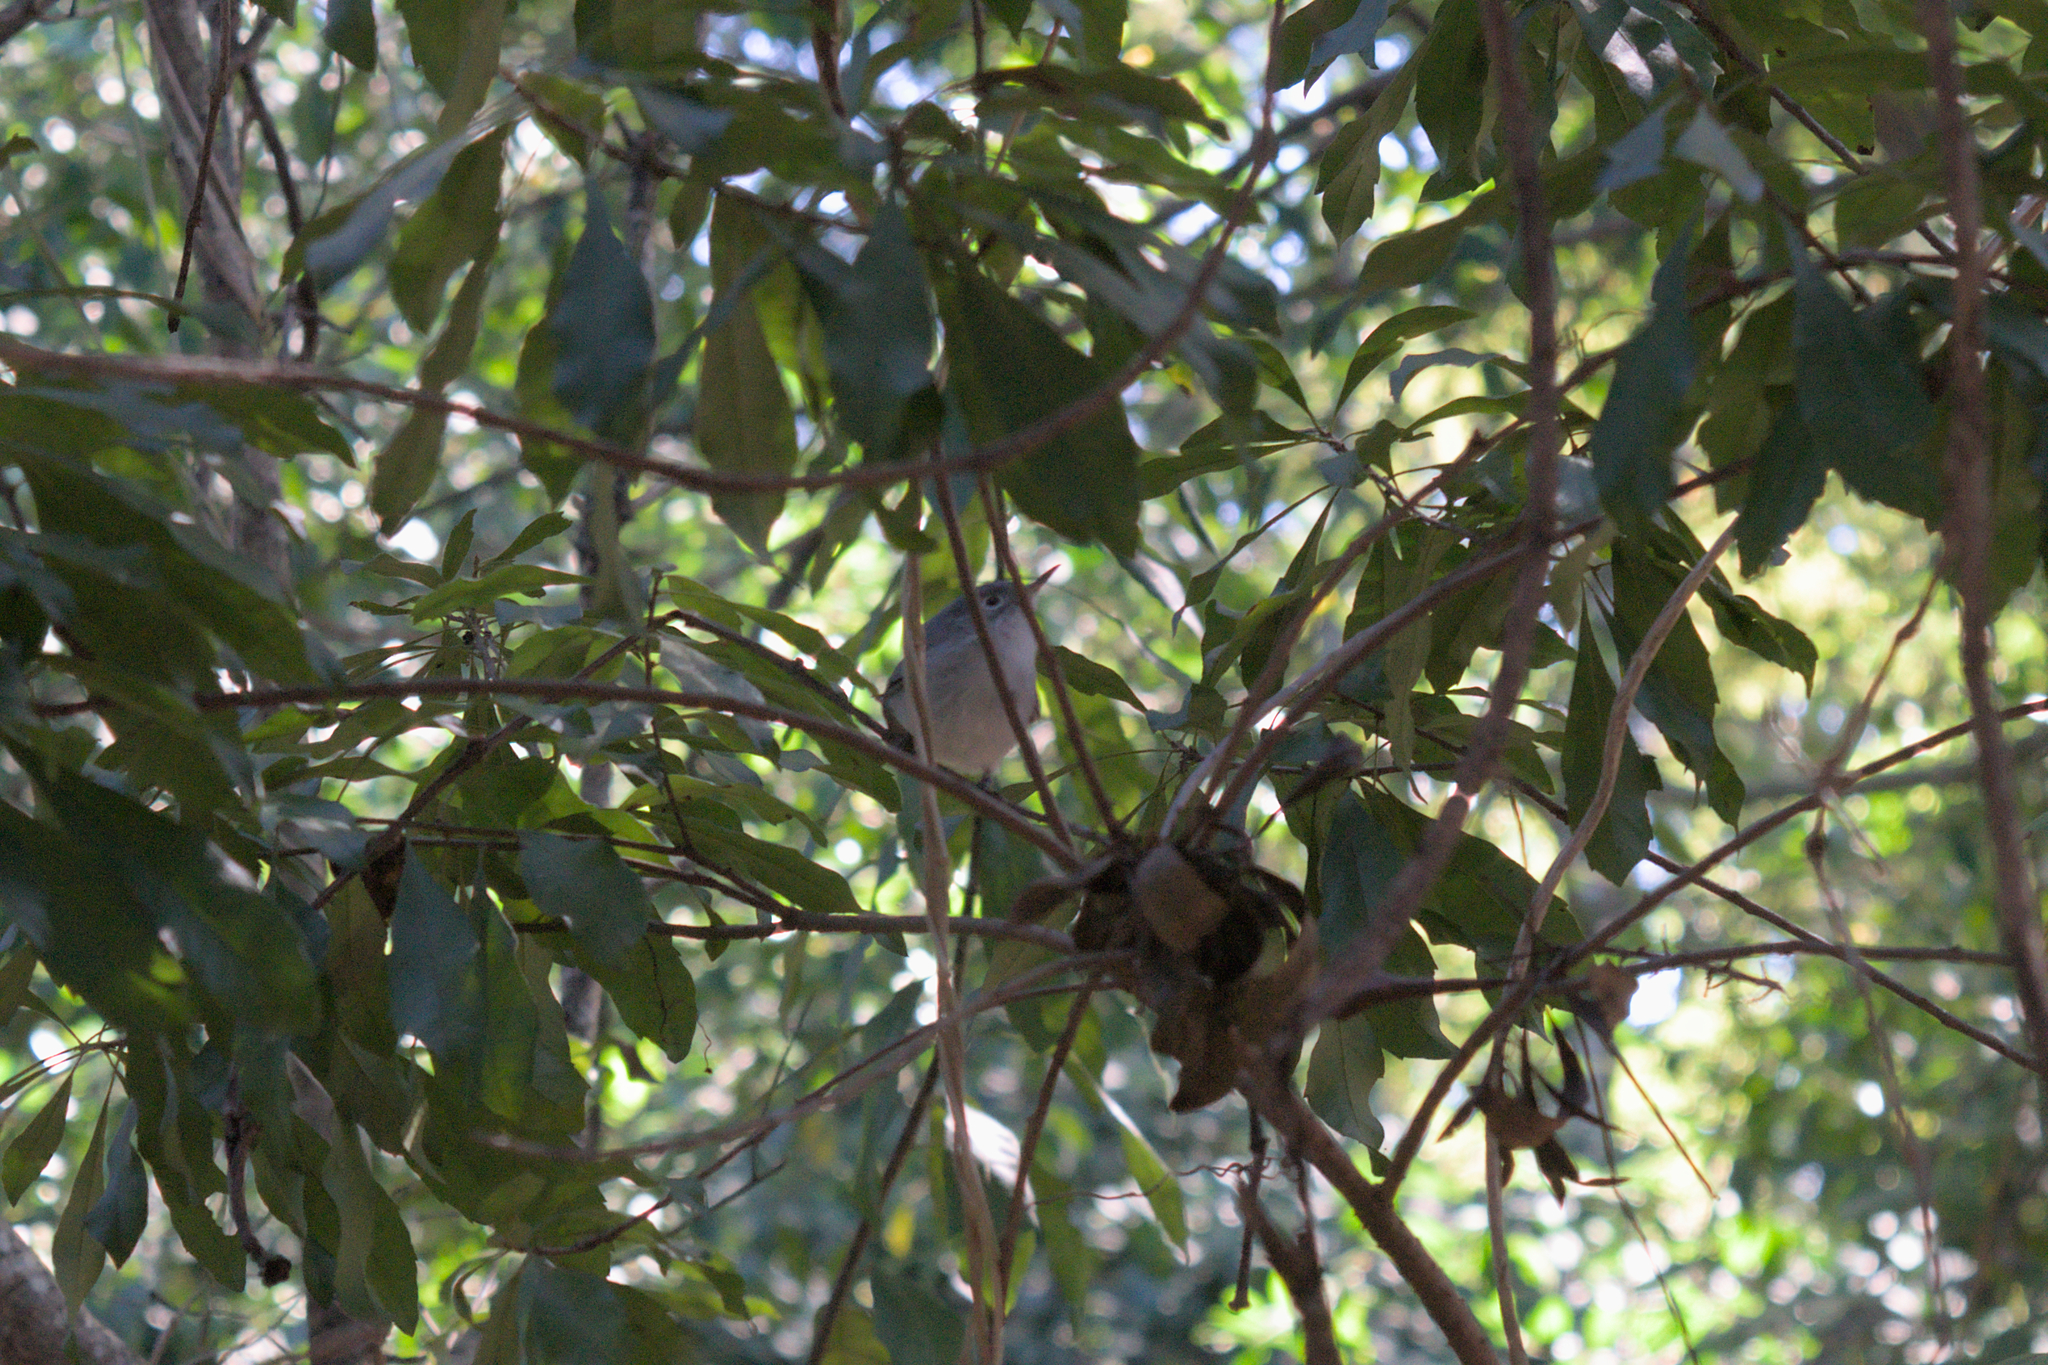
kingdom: Animalia
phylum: Chordata
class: Aves
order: Passeriformes
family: Polioptilidae
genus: Polioptila
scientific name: Polioptila caerulea
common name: Blue-gray gnatcatcher
